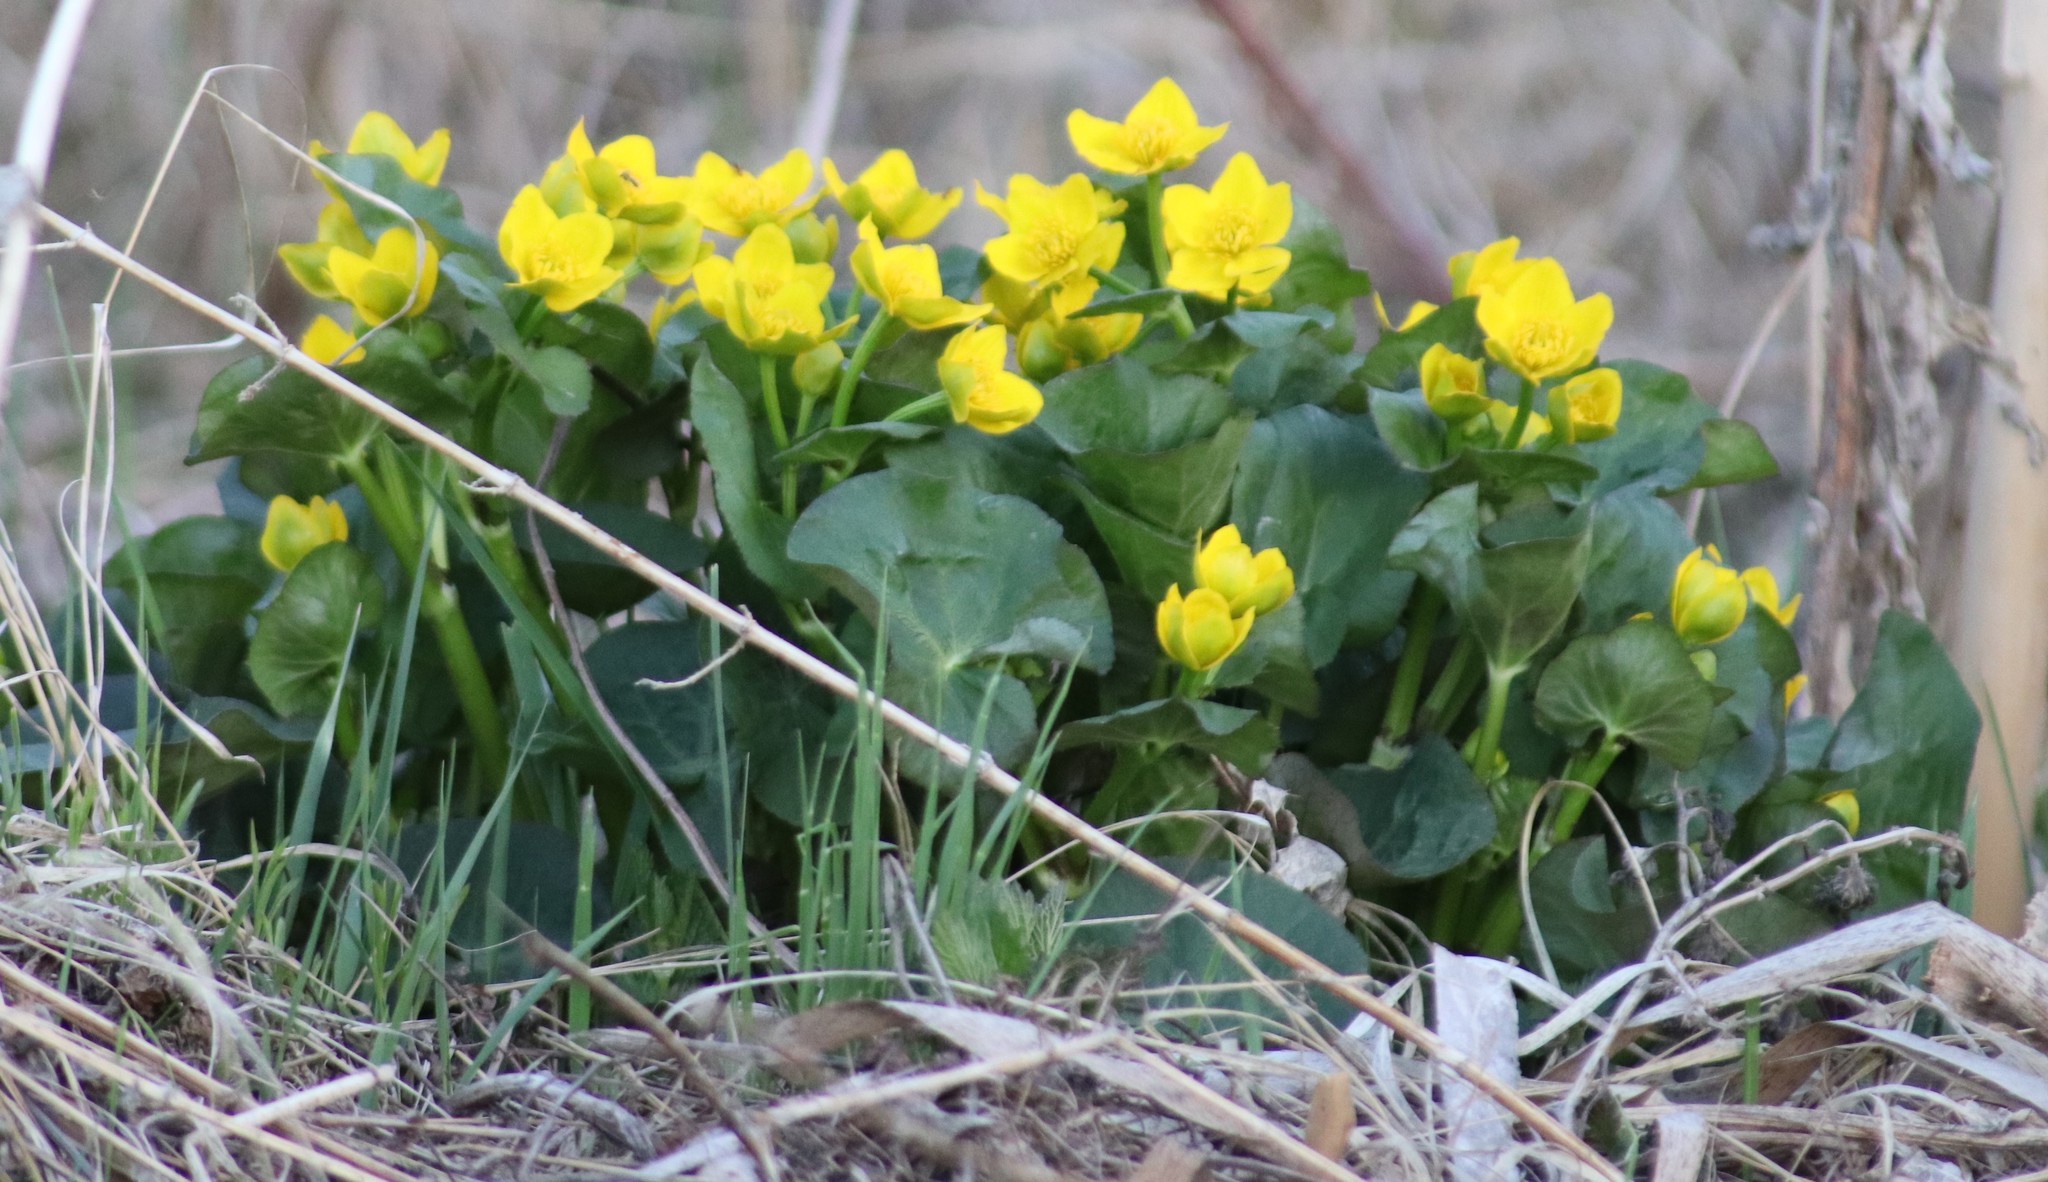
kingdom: Plantae
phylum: Tracheophyta
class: Magnoliopsida
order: Ranunculales
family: Ranunculaceae
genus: Caltha
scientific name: Caltha palustris
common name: Marsh marigold
